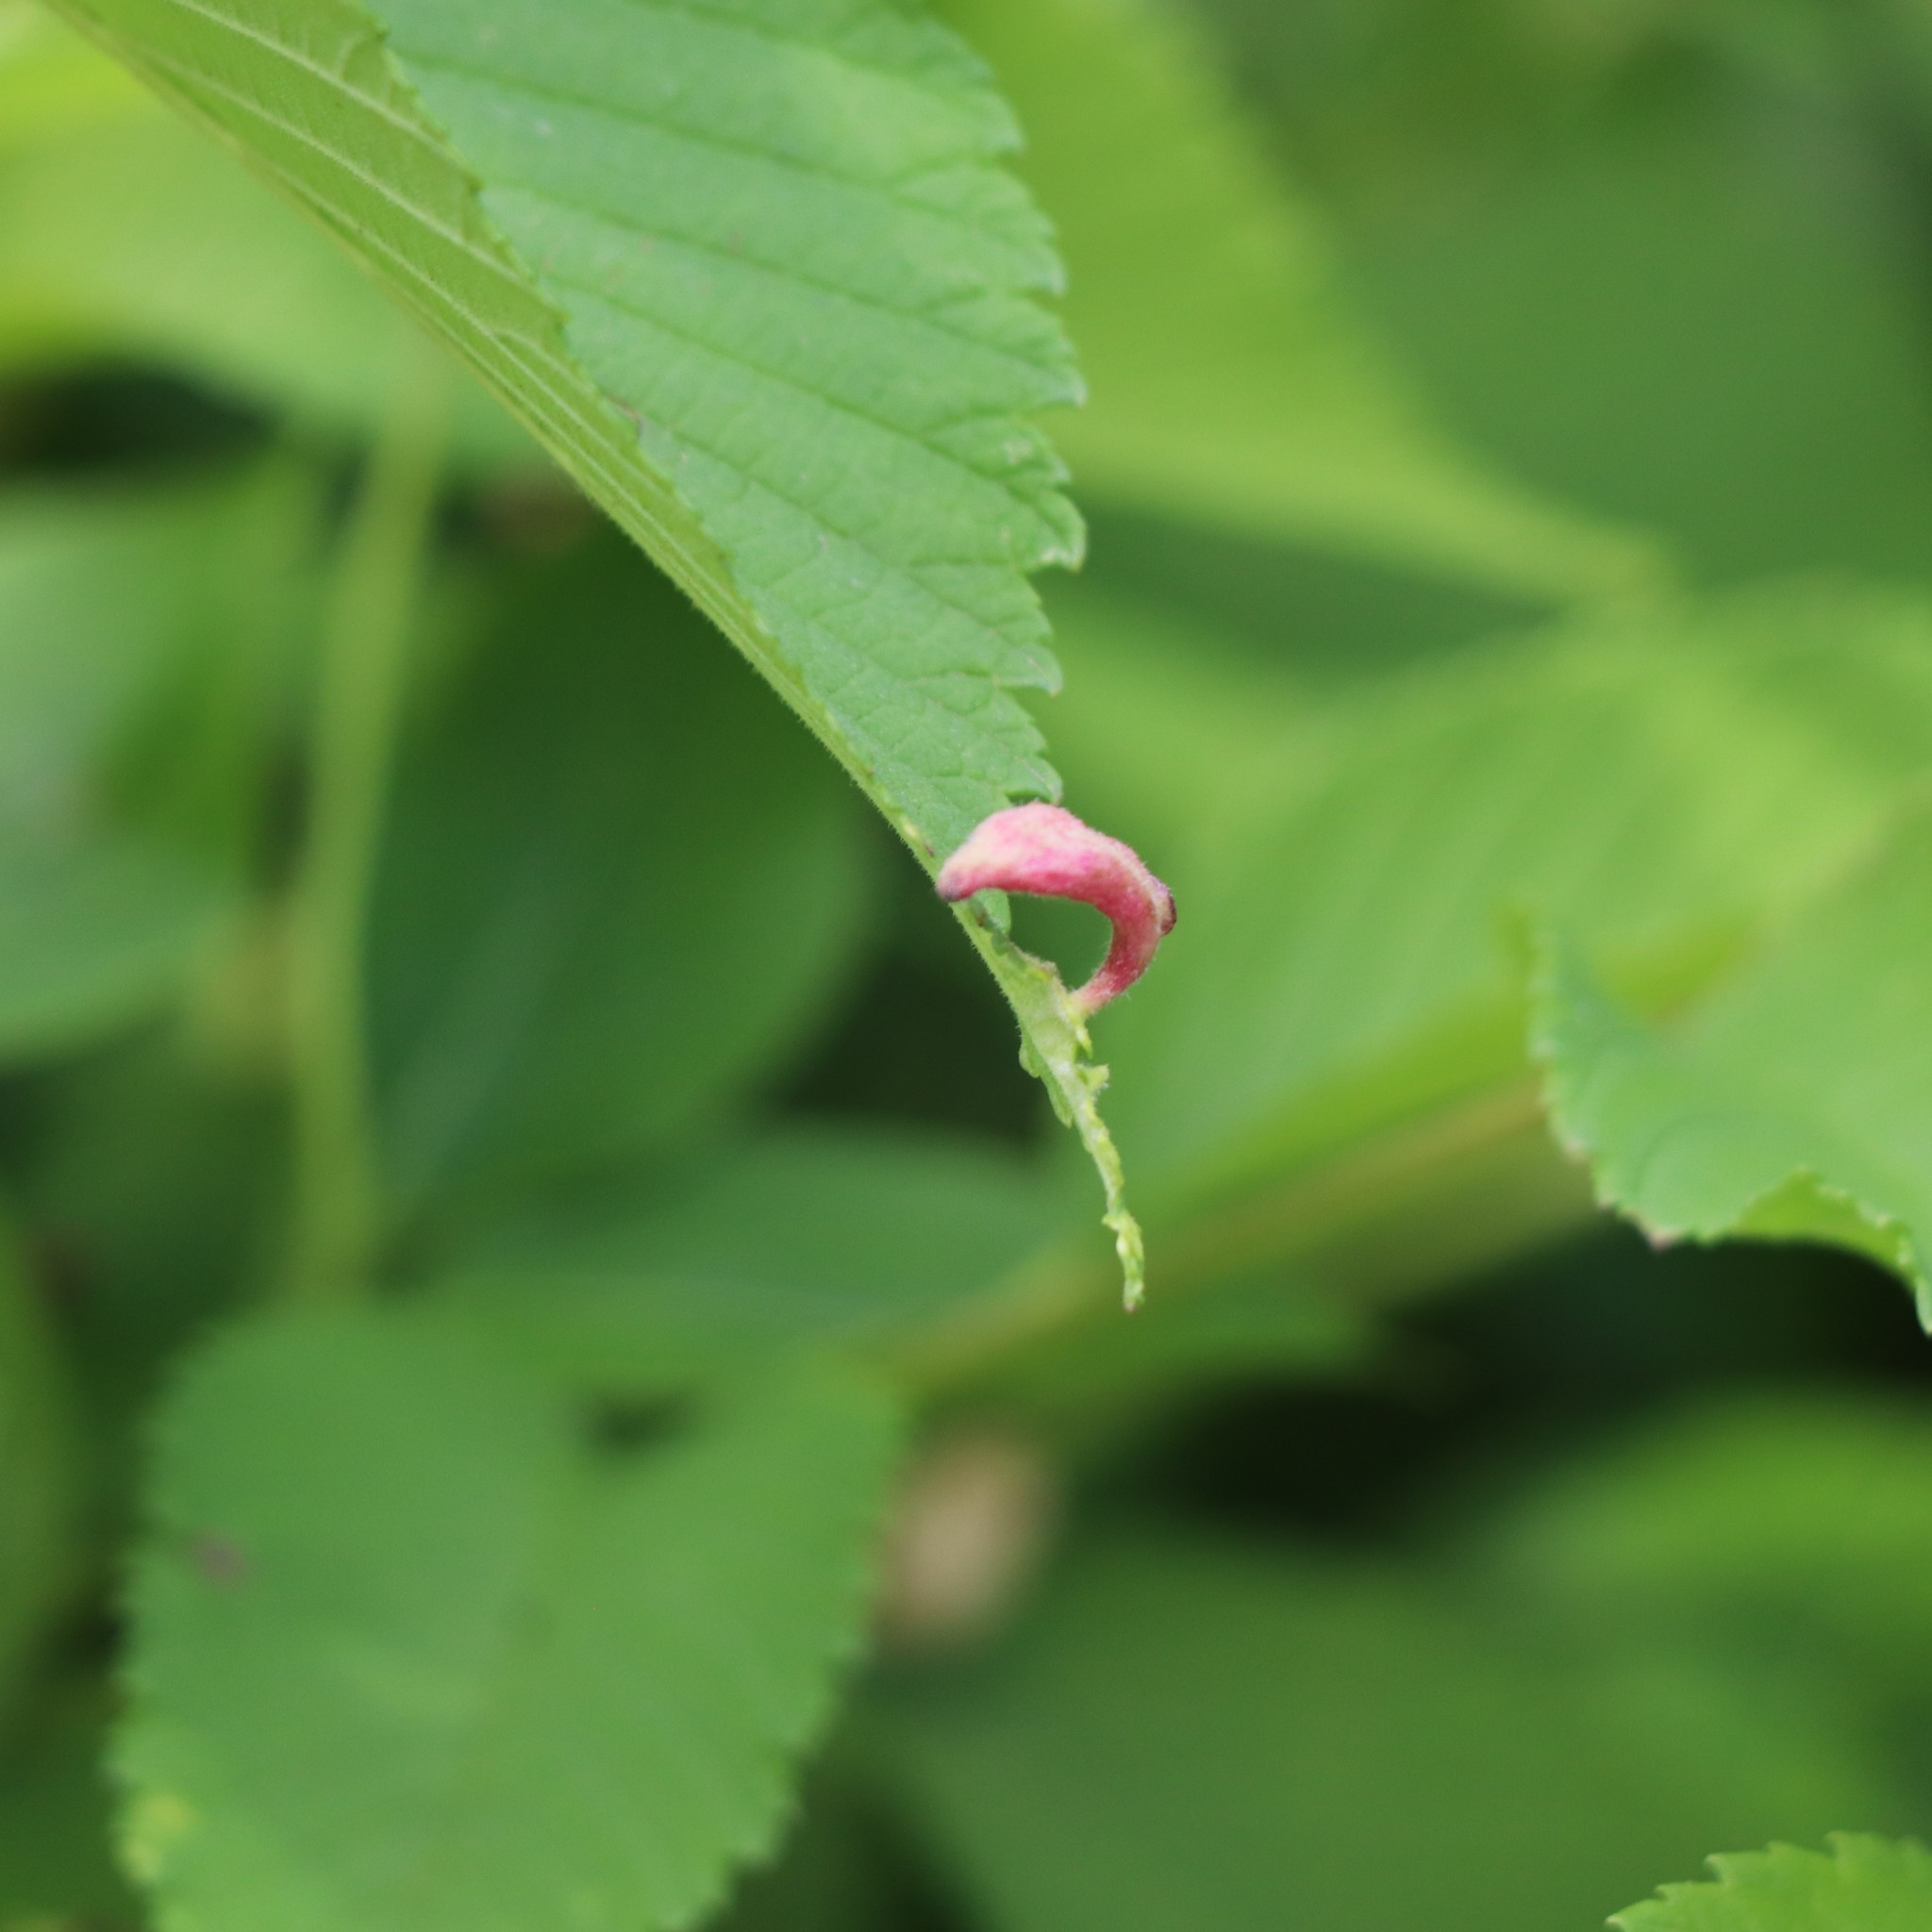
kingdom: Animalia
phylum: Arthropoda
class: Insecta
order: Hemiptera
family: Aphididae
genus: Tetraneura
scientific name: Tetraneura nigriabdominalis
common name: Aphid
